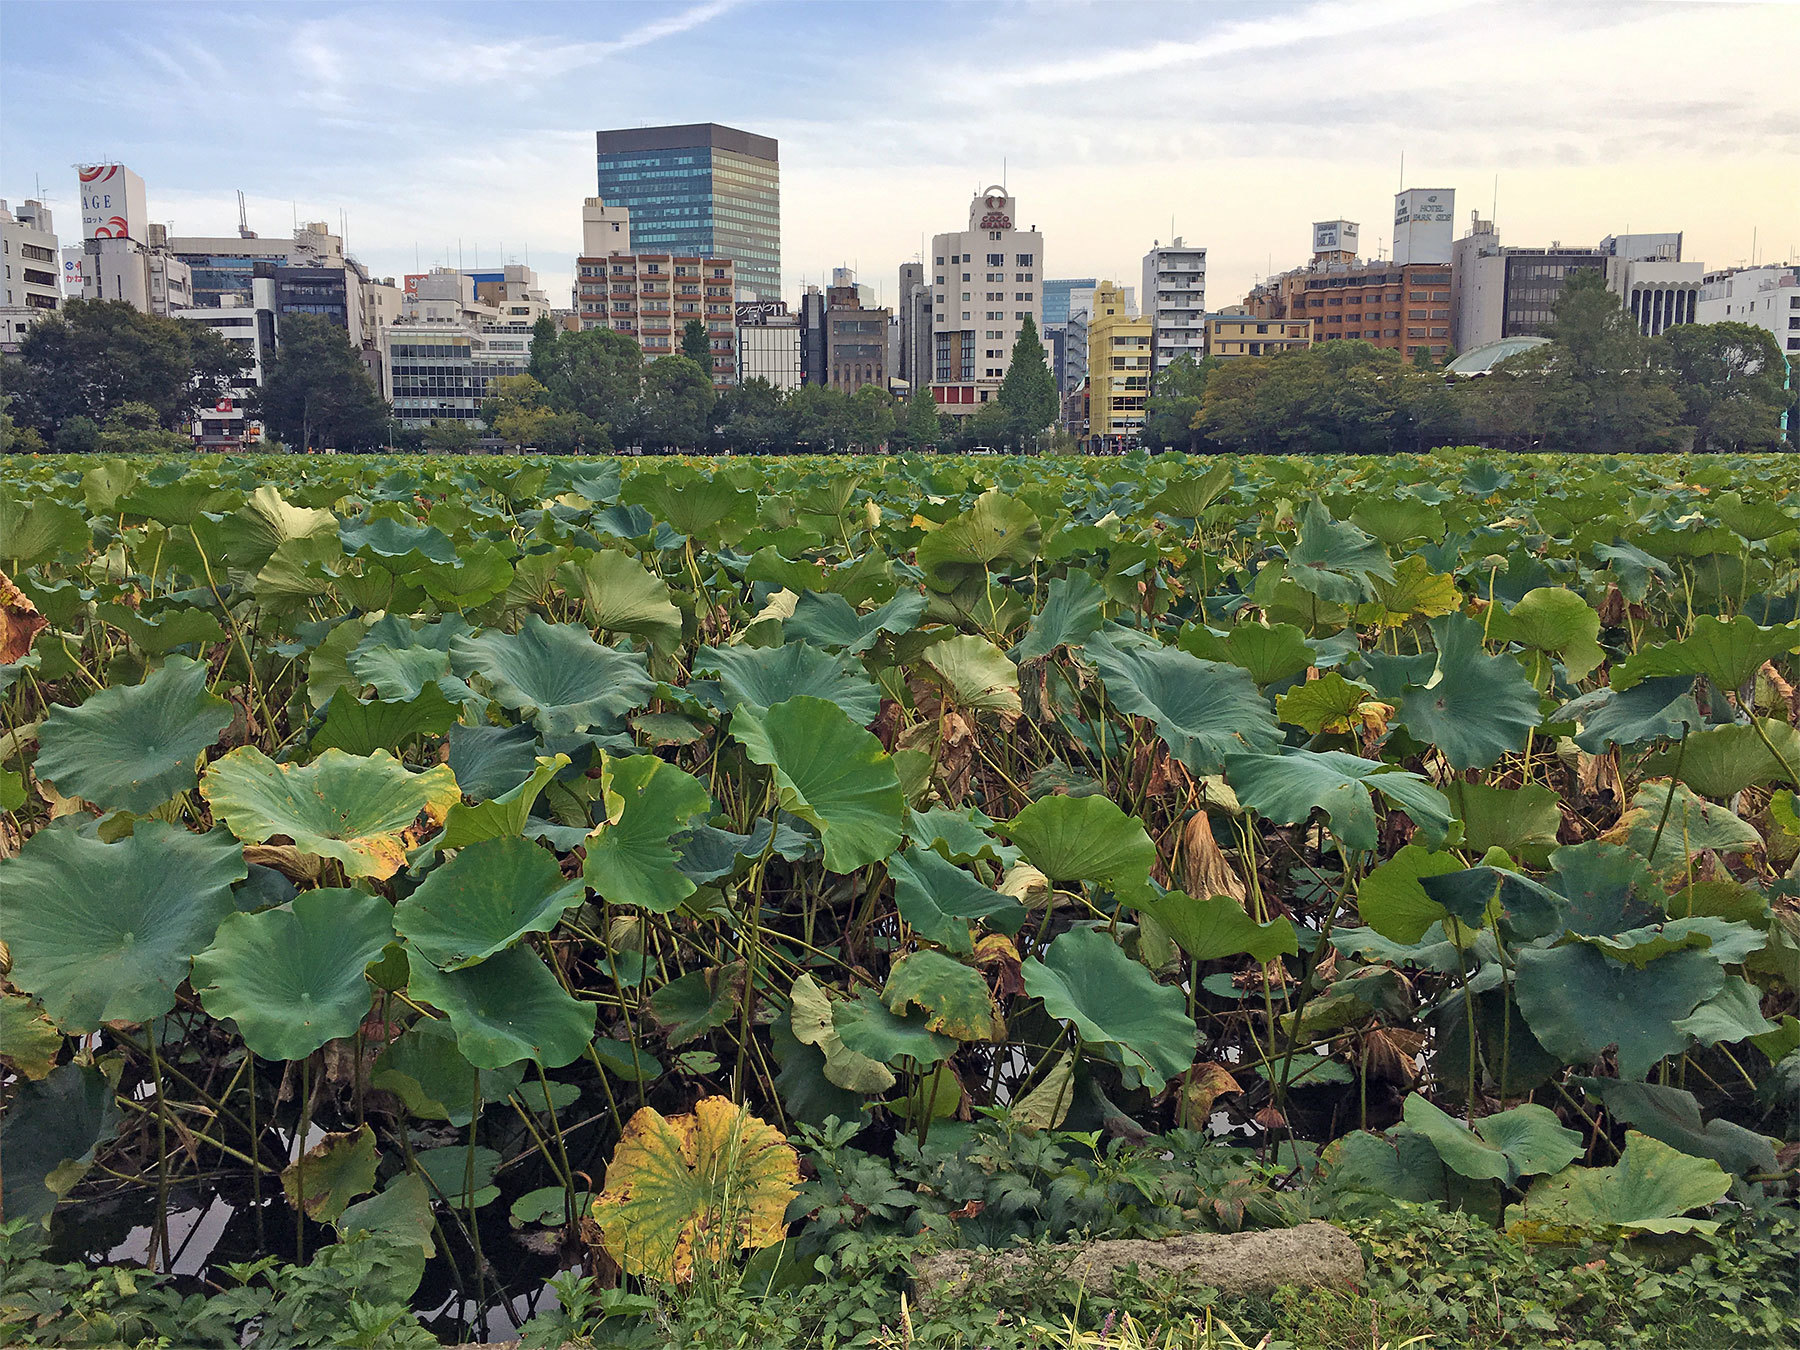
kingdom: Plantae
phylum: Tracheophyta
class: Magnoliopsida
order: Proteales
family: Nelumbonaceae
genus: Nelumbo
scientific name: Nelumbo nucifera
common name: Sacred lotus
